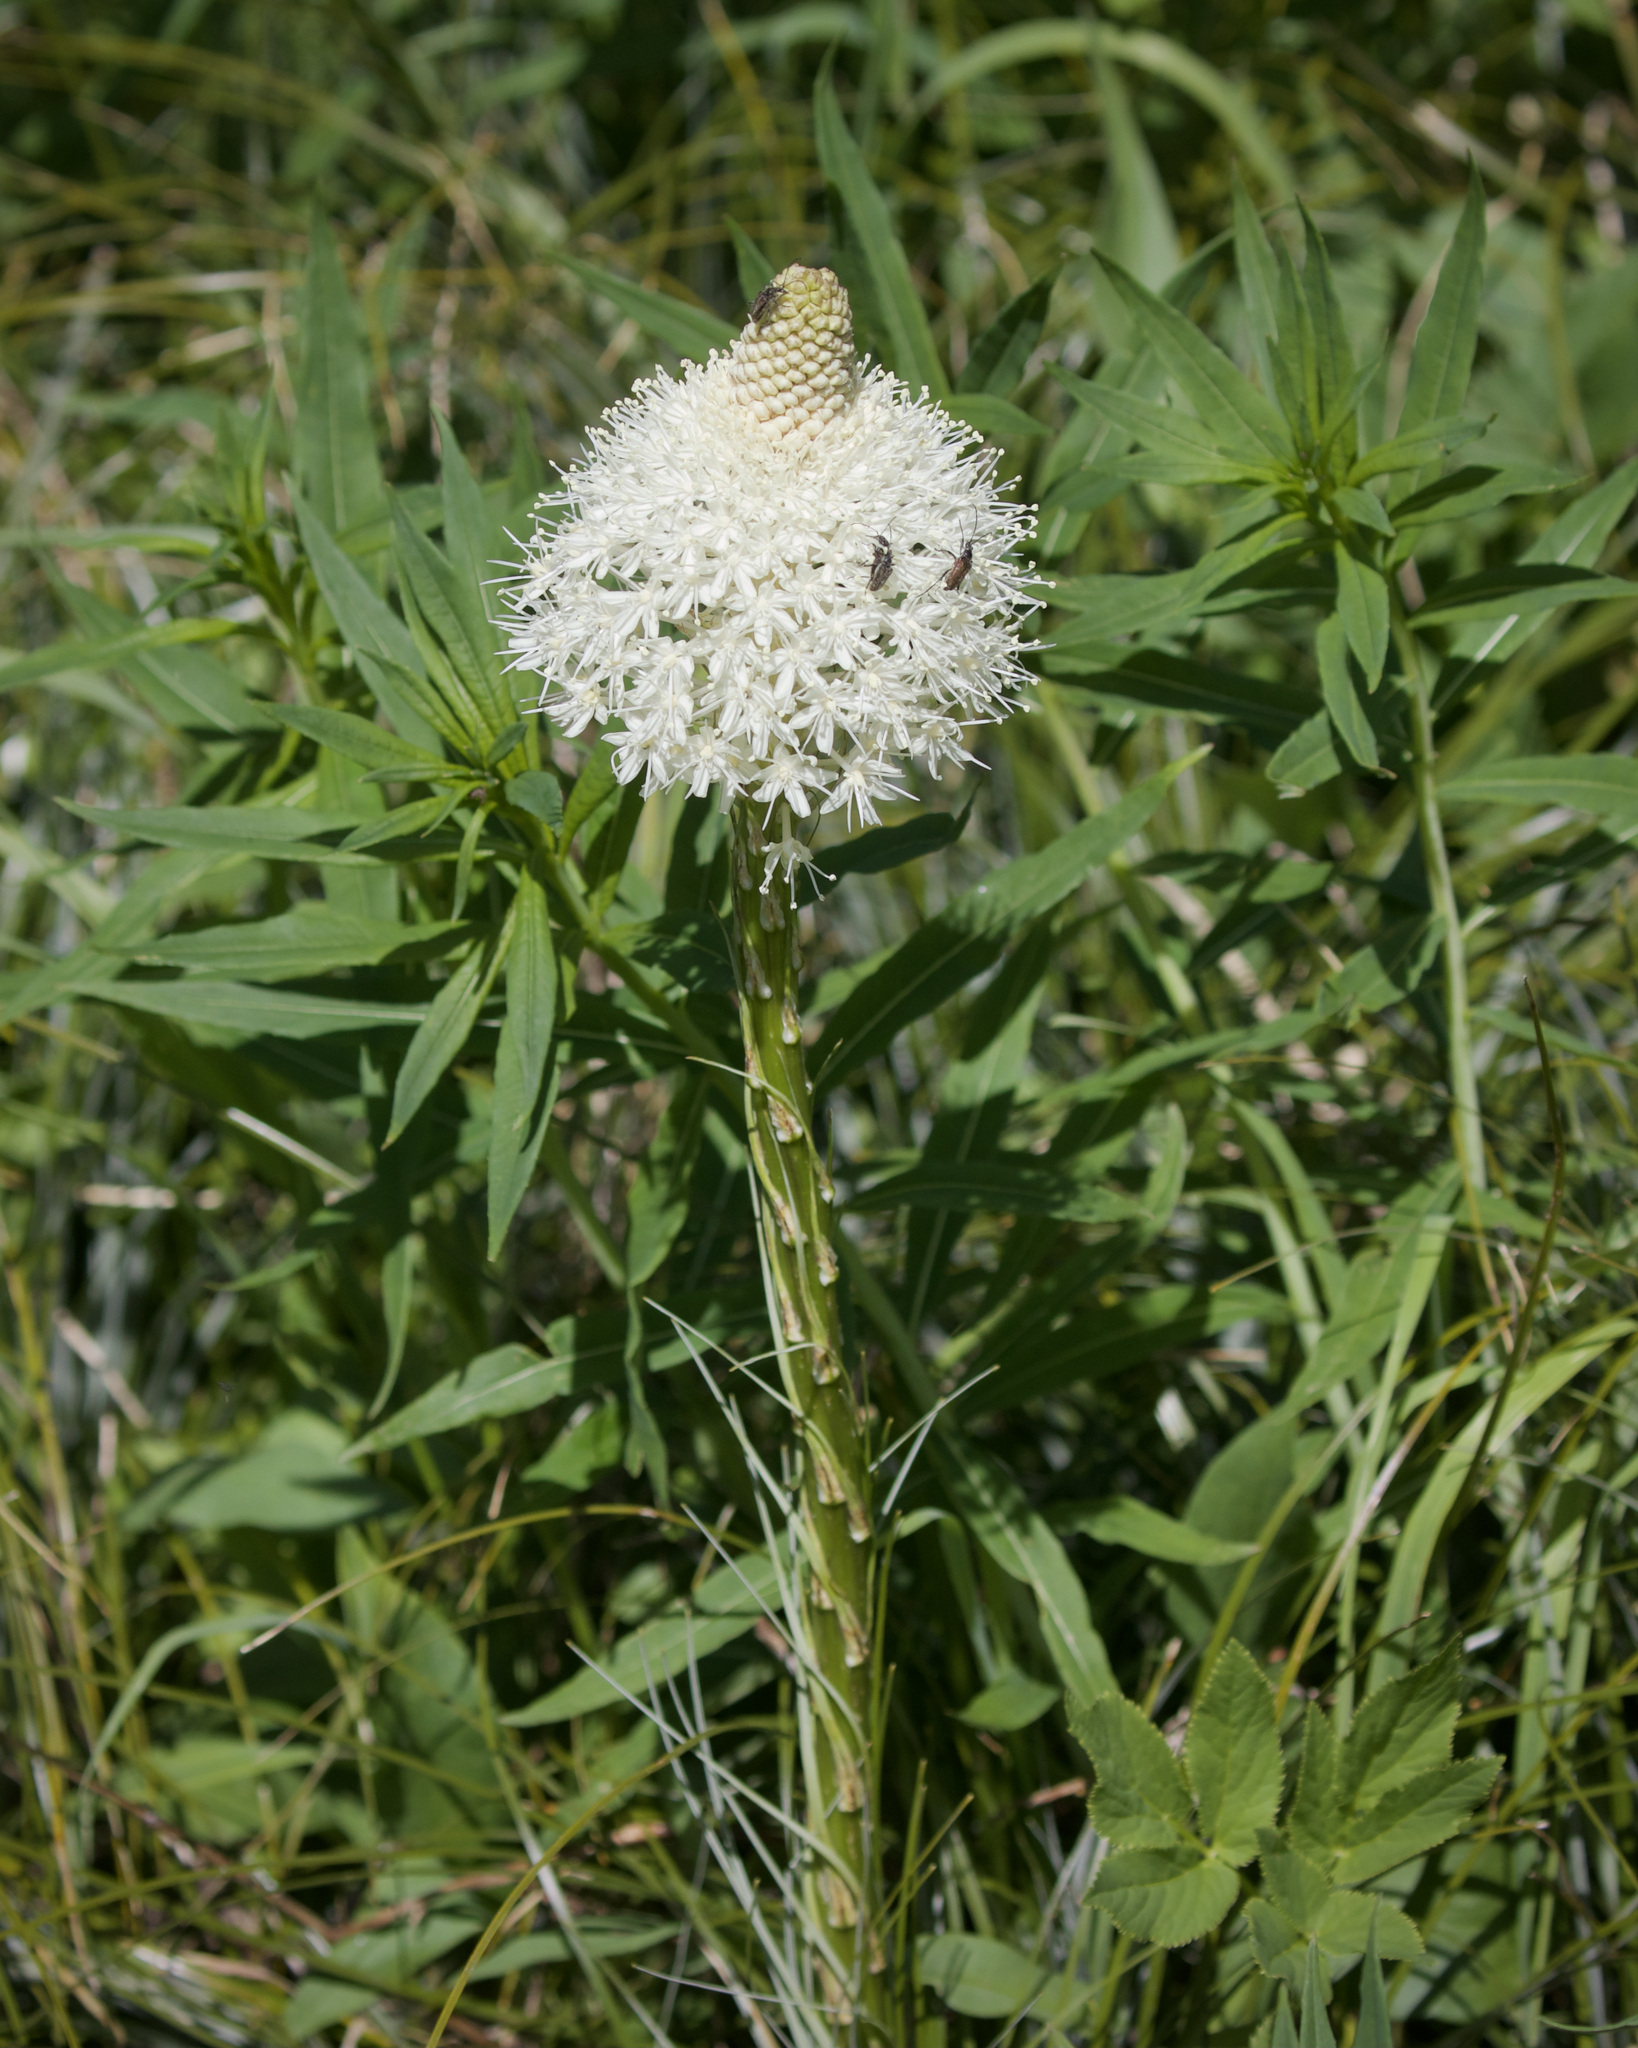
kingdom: Plantae
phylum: Tracheophyta
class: Liliopsida
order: Liliales
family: Melanthiaceae
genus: Xerophyllum
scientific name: Xerophyllum tenax
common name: Bear-grass
